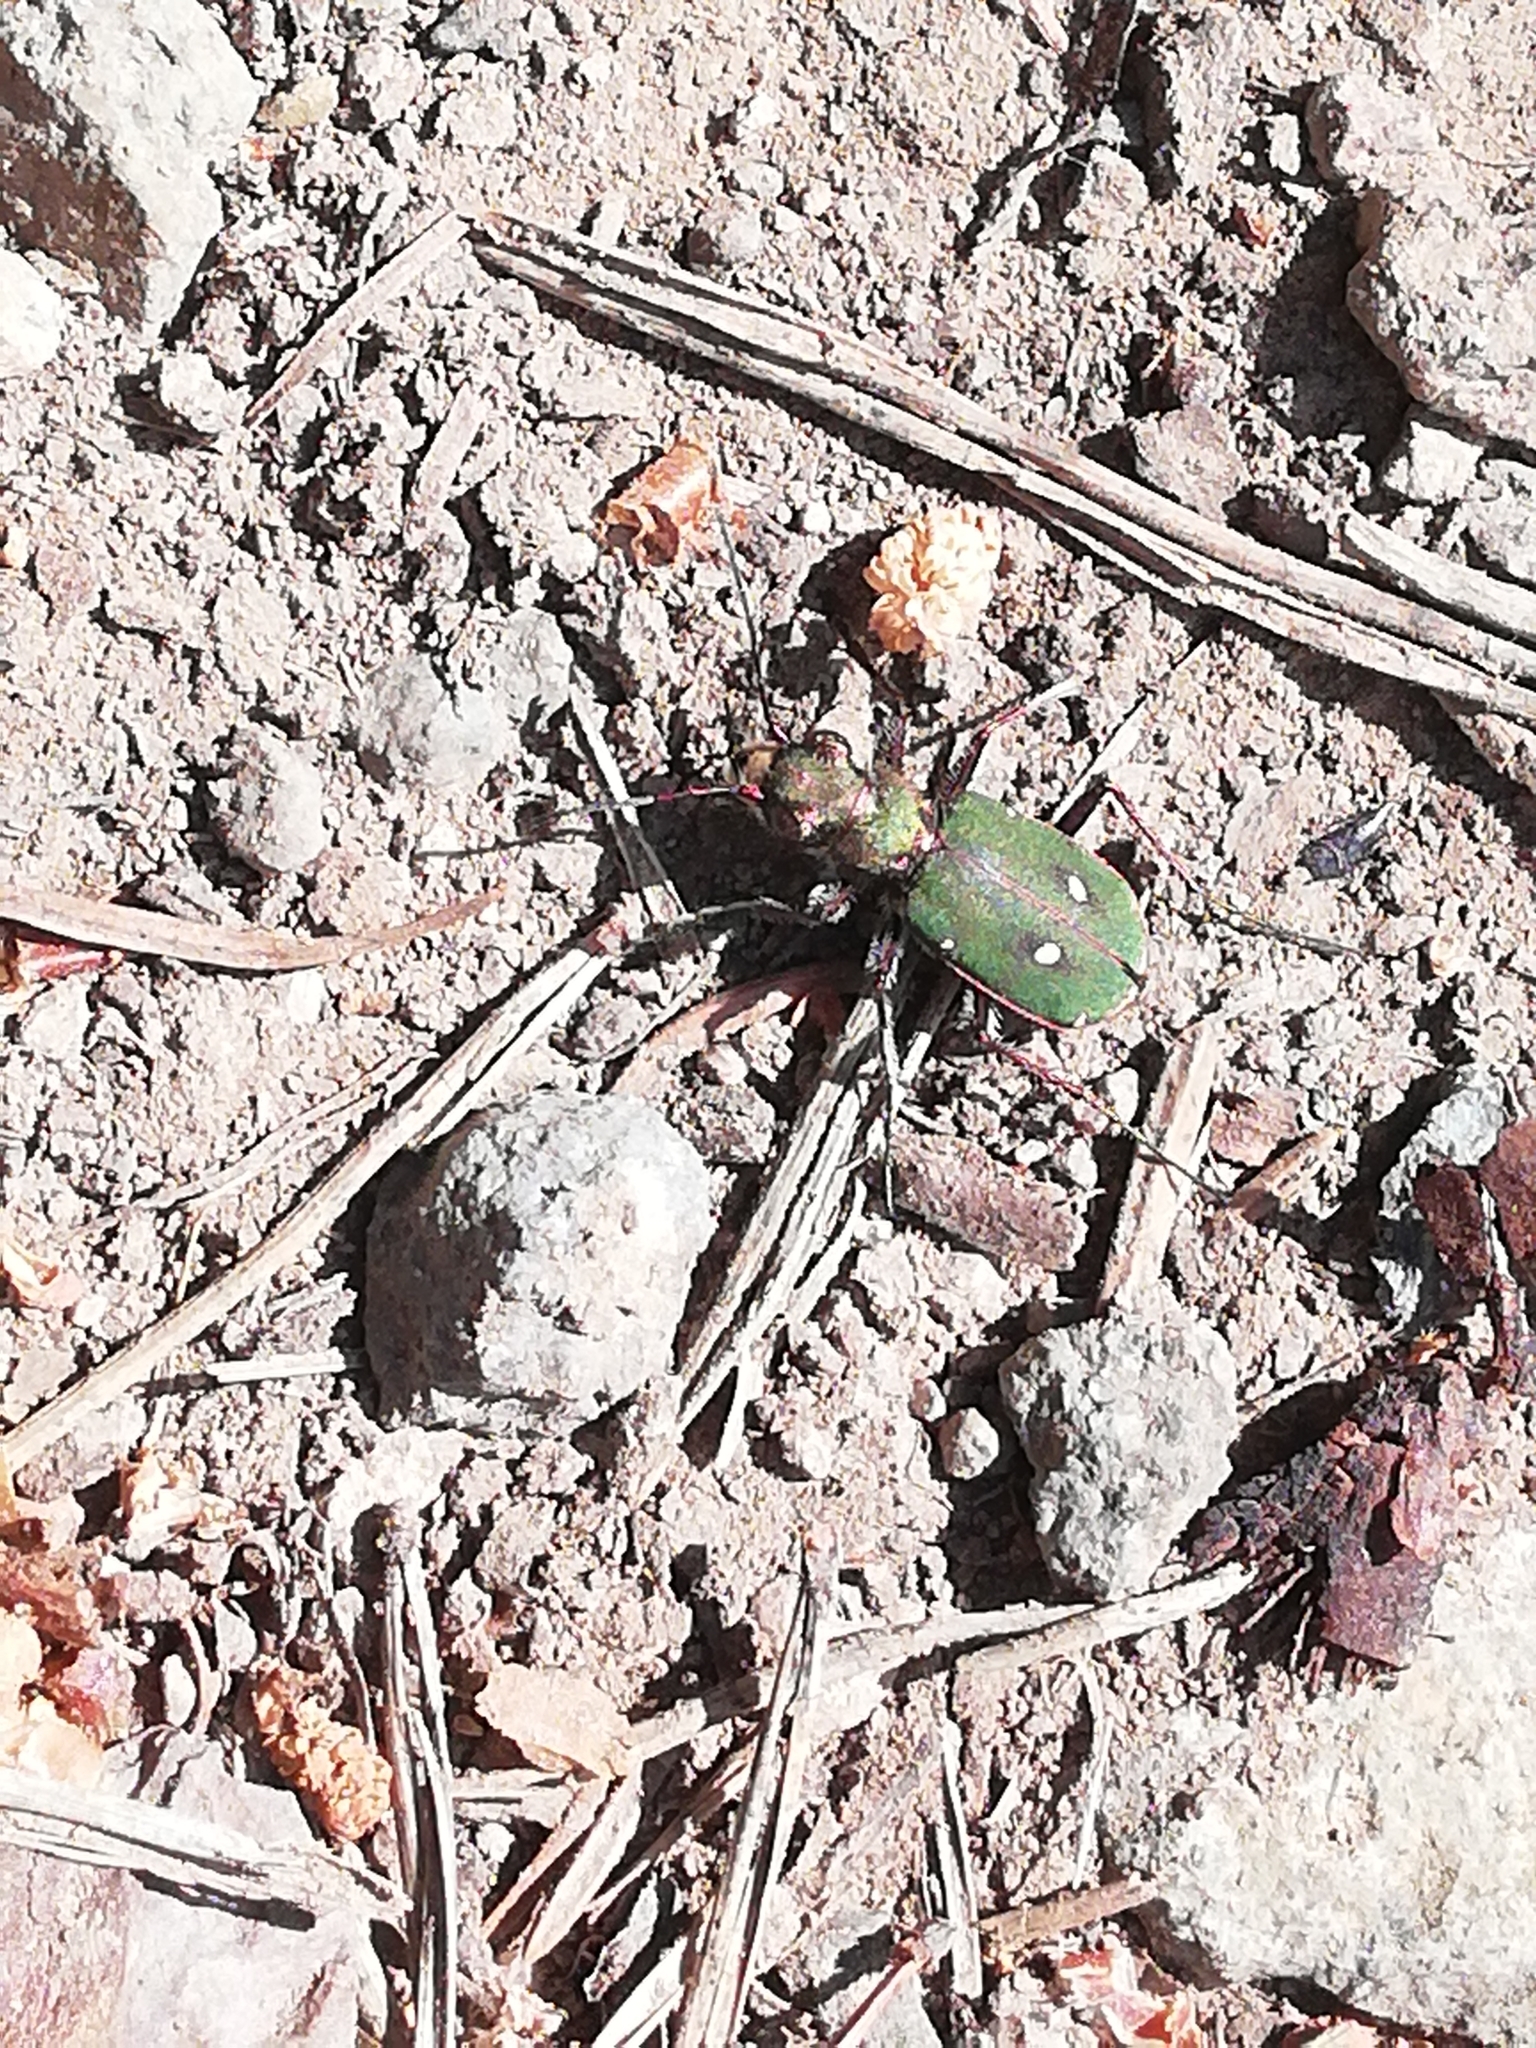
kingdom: Animalia
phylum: Arthropoda
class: Insecta
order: Coleoptera
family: Carabidae
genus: Cicindela
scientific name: Cicindela campestris
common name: Common tiger beetle
